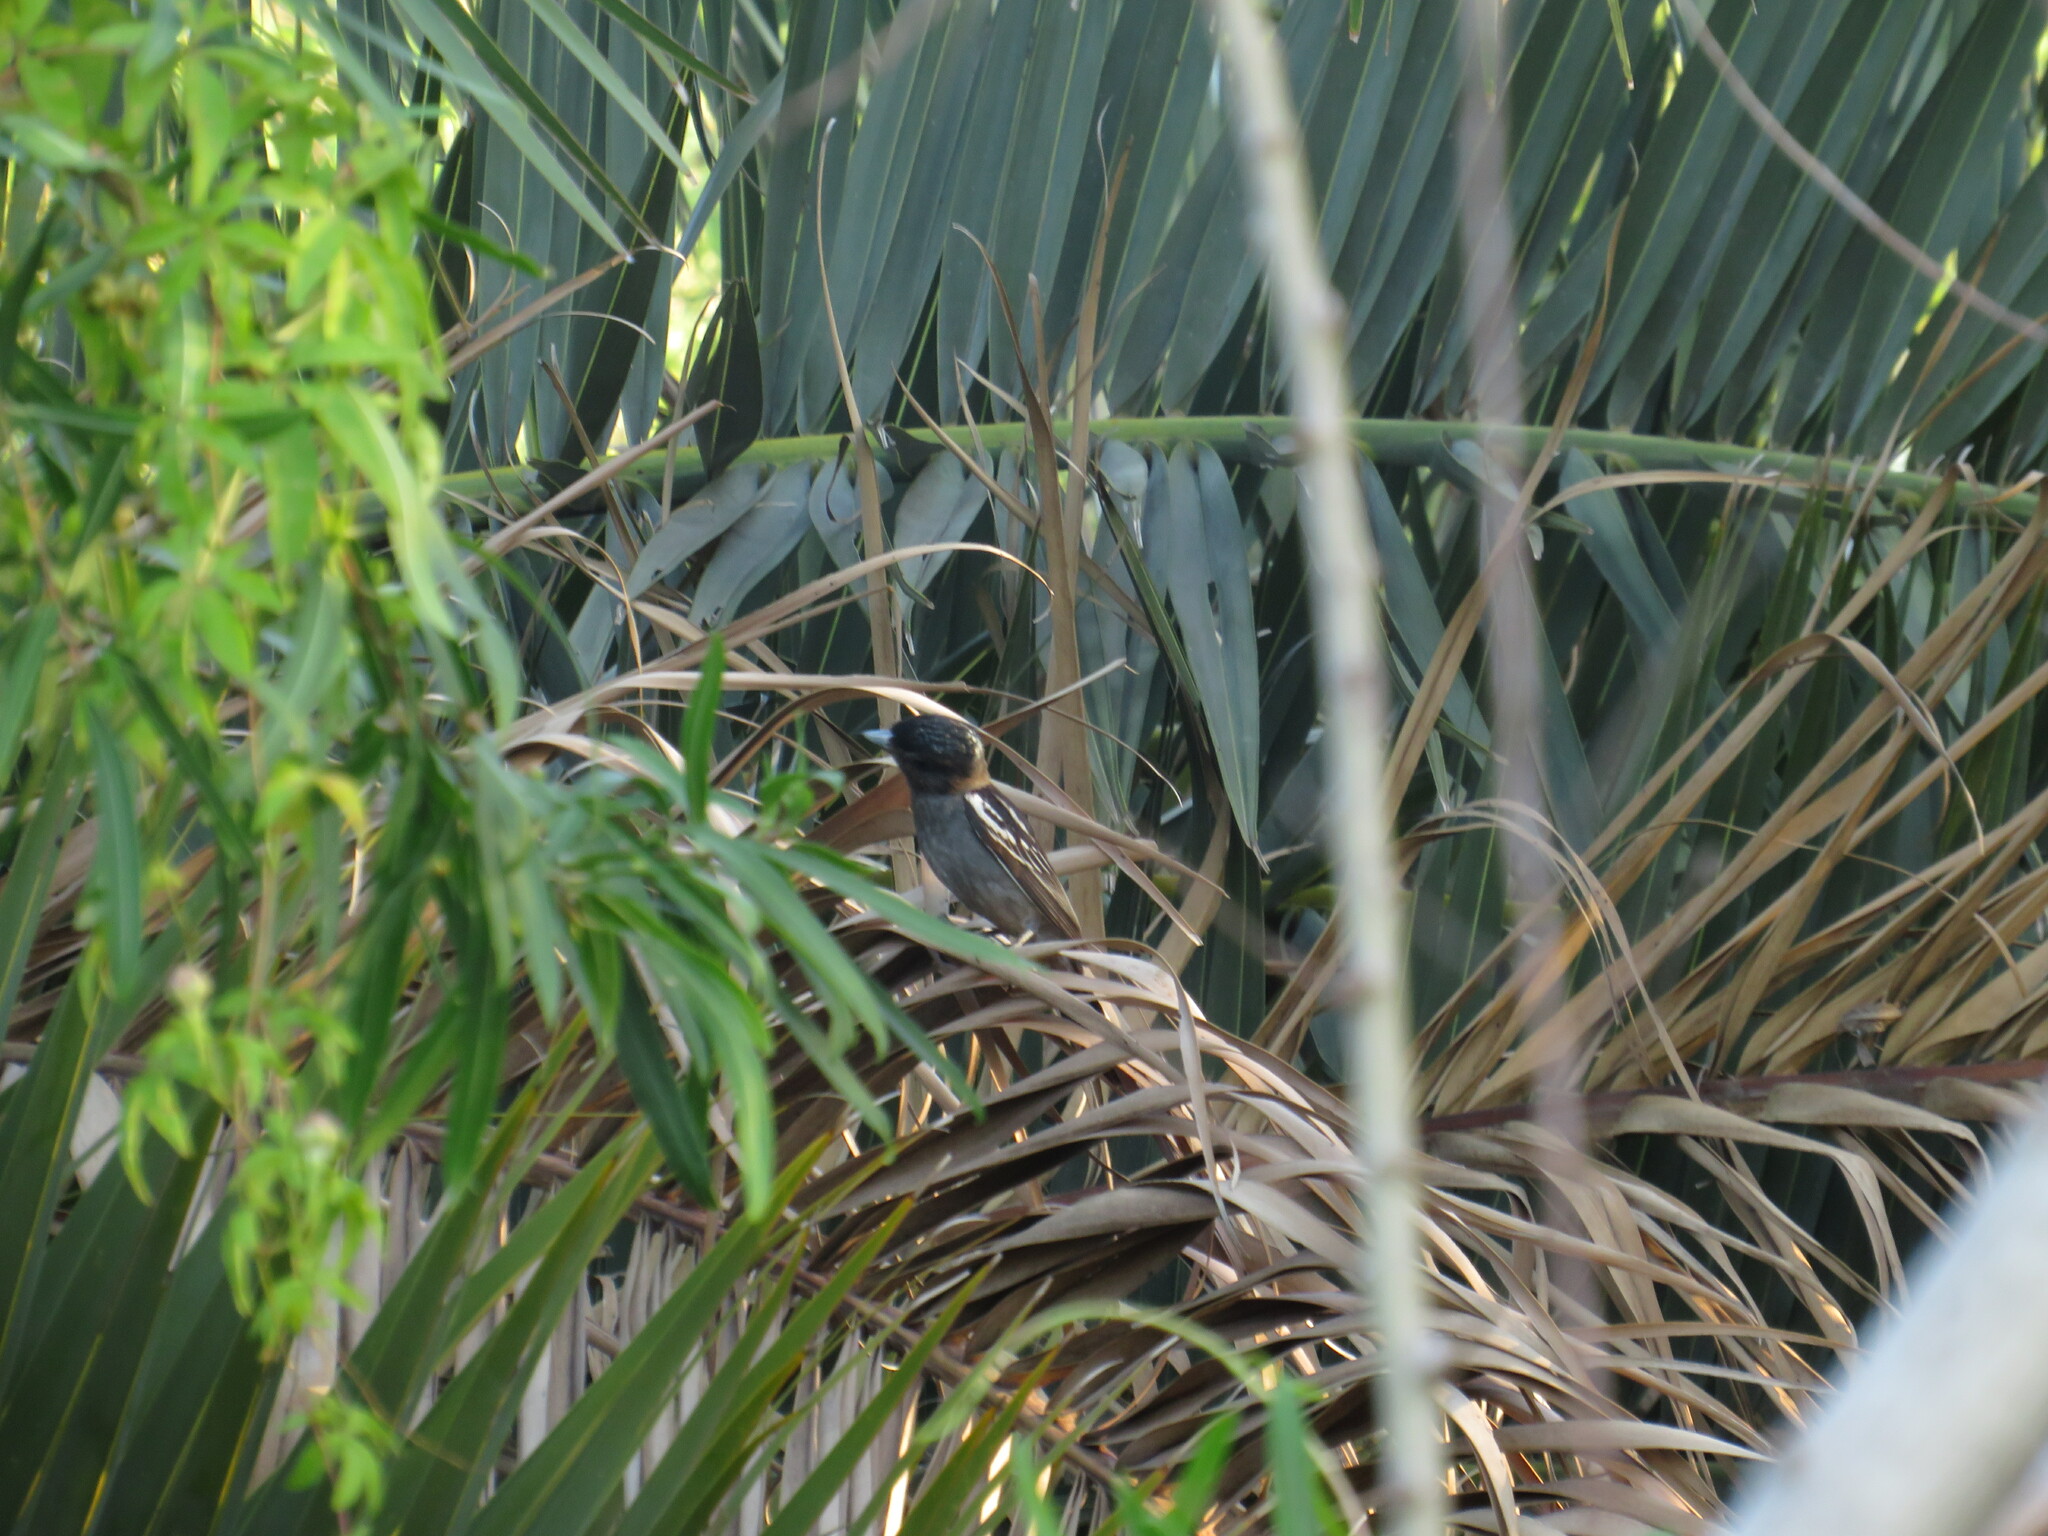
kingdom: Animalia
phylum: Chordata
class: Aves
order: Passeriformes
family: Cotingidae
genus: Pachyramphus
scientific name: Pachyramphus polychopterus
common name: White-winged becard
